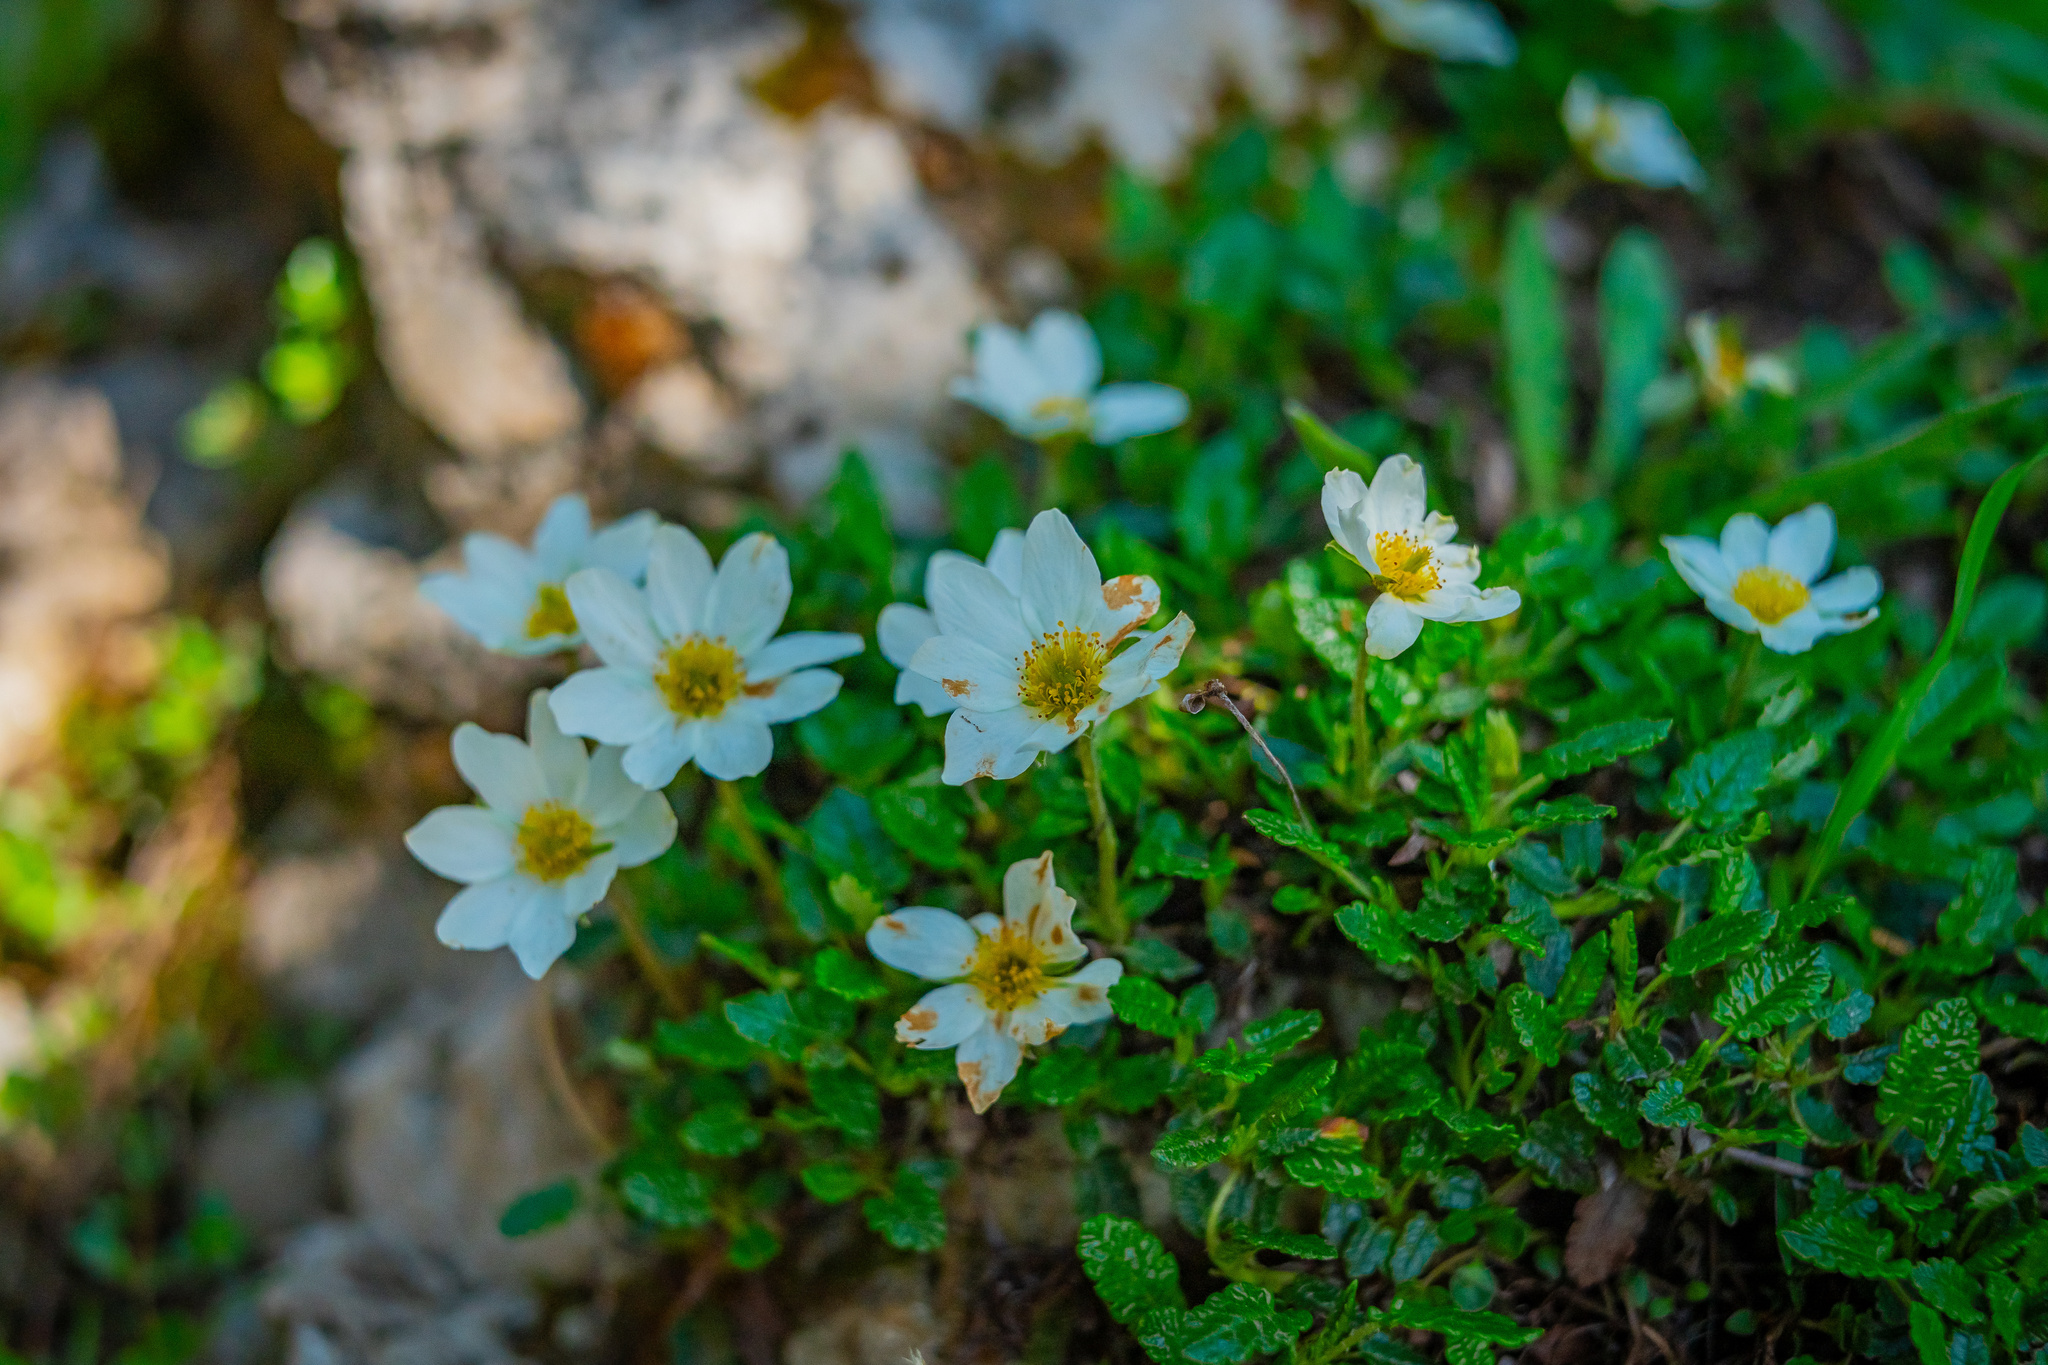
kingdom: Plantae
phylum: Tracheophyta
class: Magnoliopsida
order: Rosales
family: Rosaceae
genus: Dryas
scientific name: Dryas octopetala
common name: Eight-petal mountain-avens
